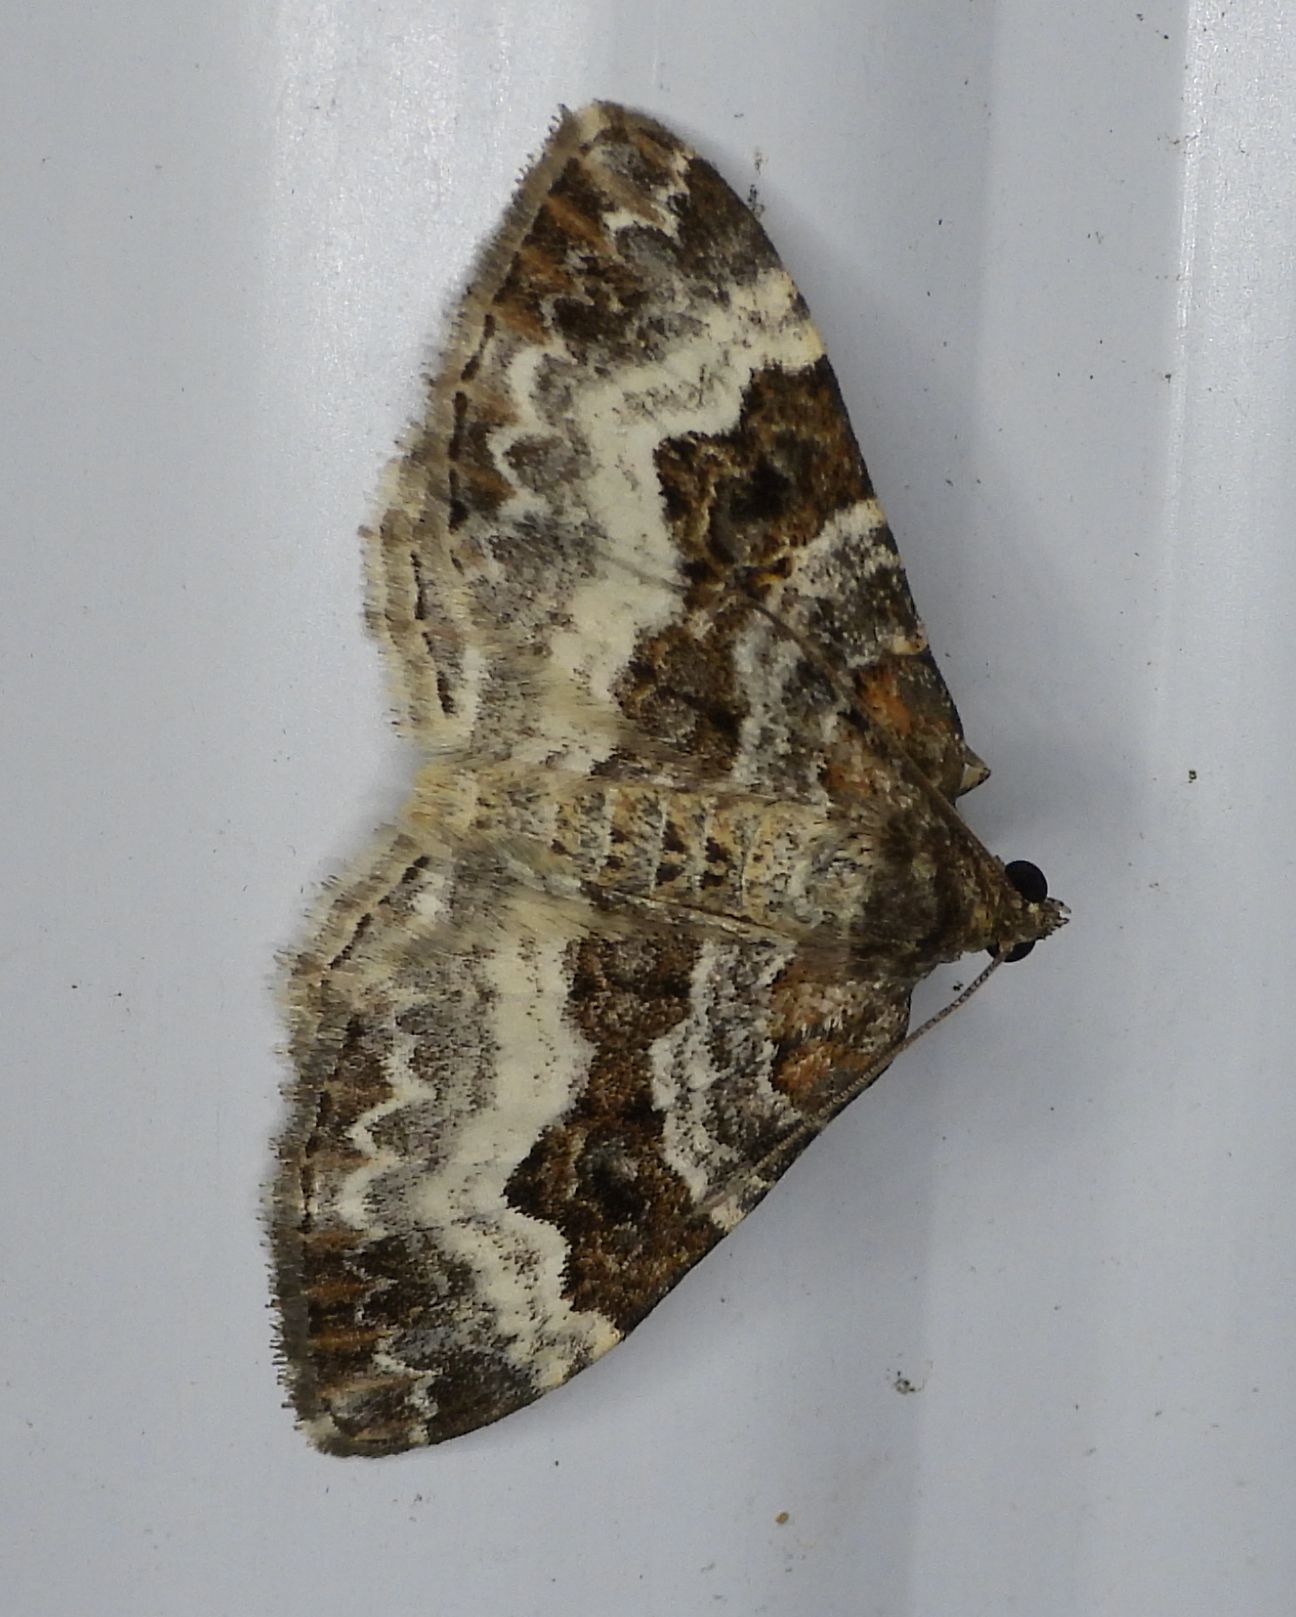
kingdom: Animalia
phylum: Arthropoda
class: Insecta
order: Lepidoptera
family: Geometridae
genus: Epirrhoe
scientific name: Epirrhoe alternata
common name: Common carpet
